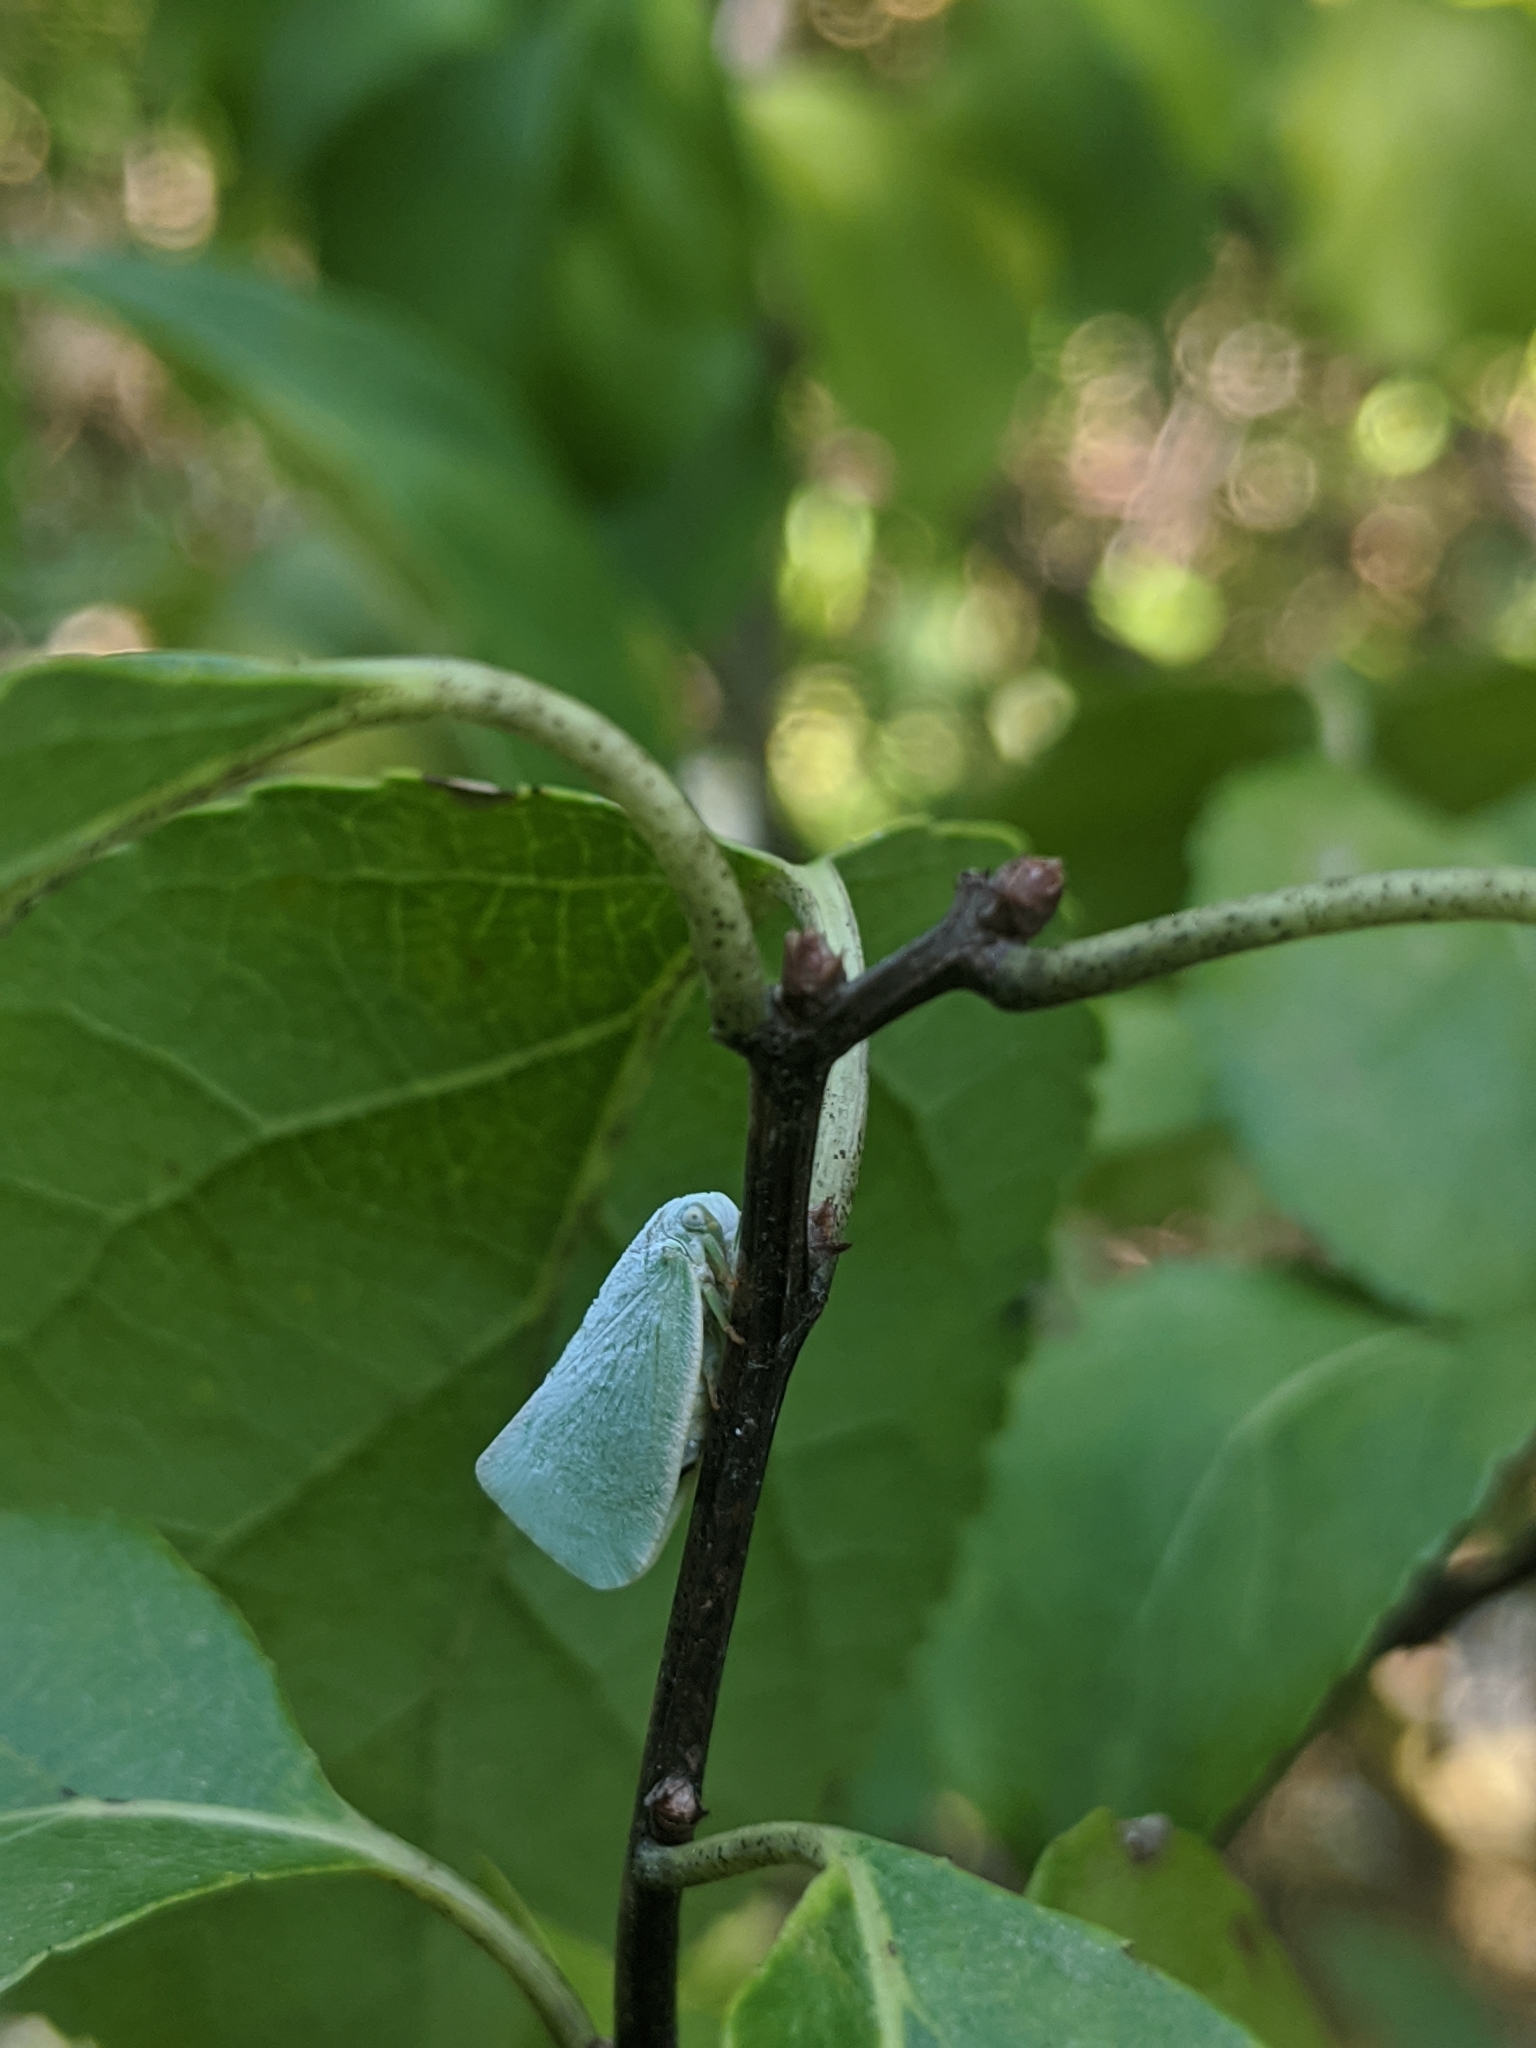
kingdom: Animalia
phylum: Arthropoda
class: Insecta
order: Hemiptera
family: Flatidae
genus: Flatormenis
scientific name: Flatormenis proxima
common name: Northern flatid planthopper
